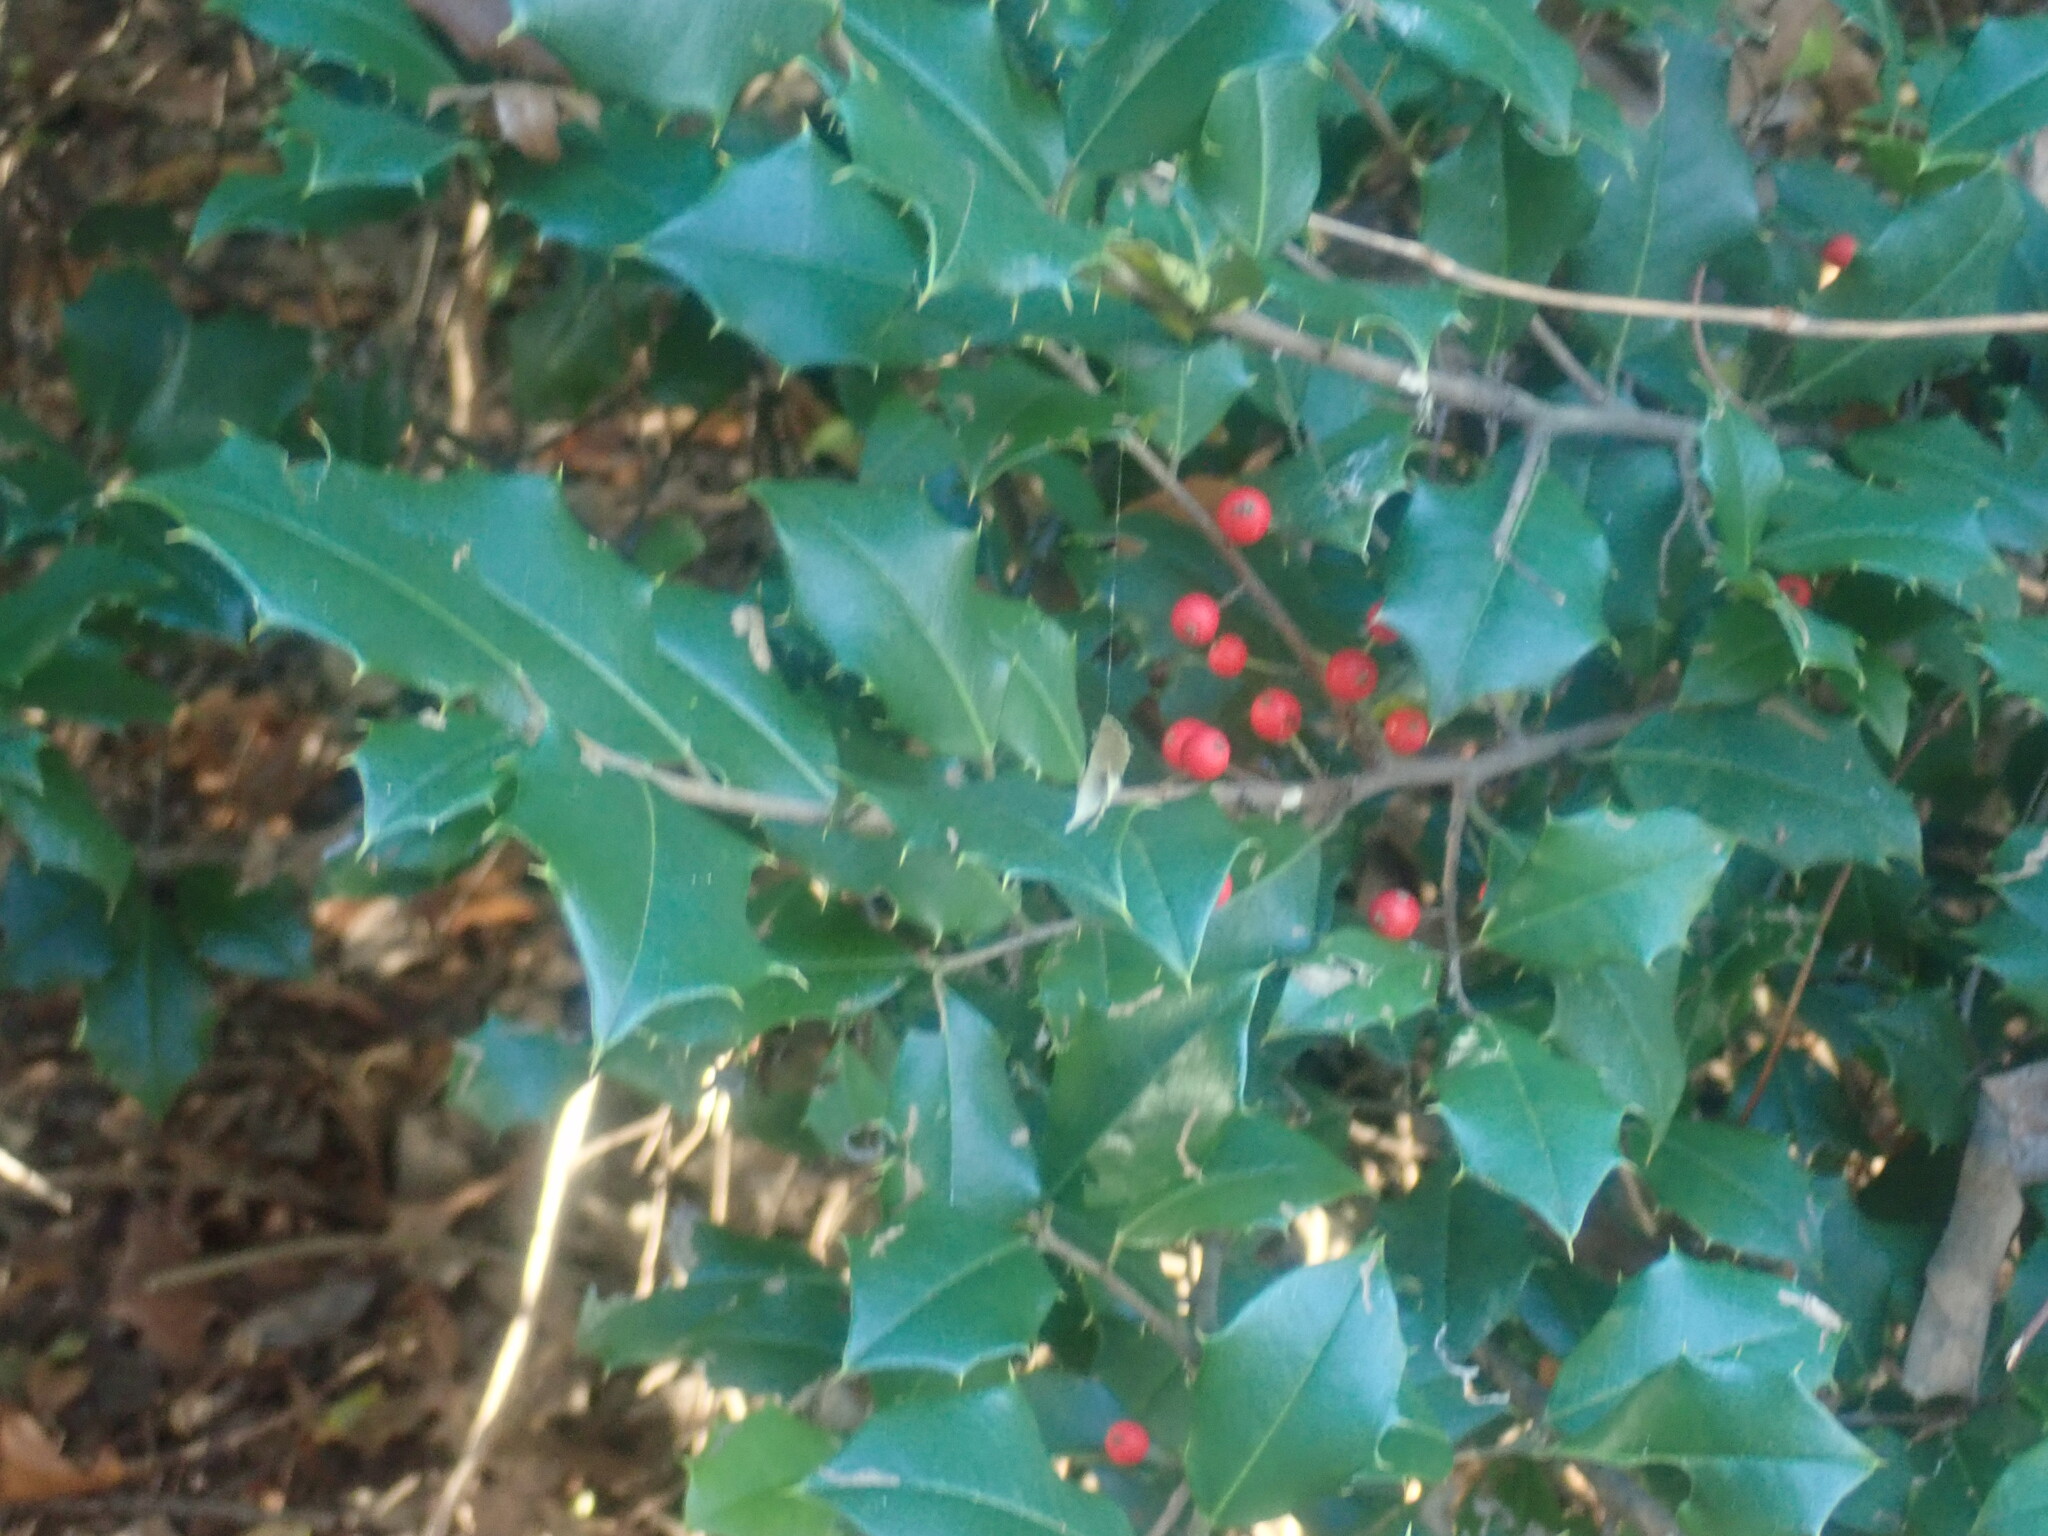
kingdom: Plantae
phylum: Tracheophyta
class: Magnoliopsida
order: Aquifoliales
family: Aquifoliaceae
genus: Ilex
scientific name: Ilex opaca
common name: American holly
